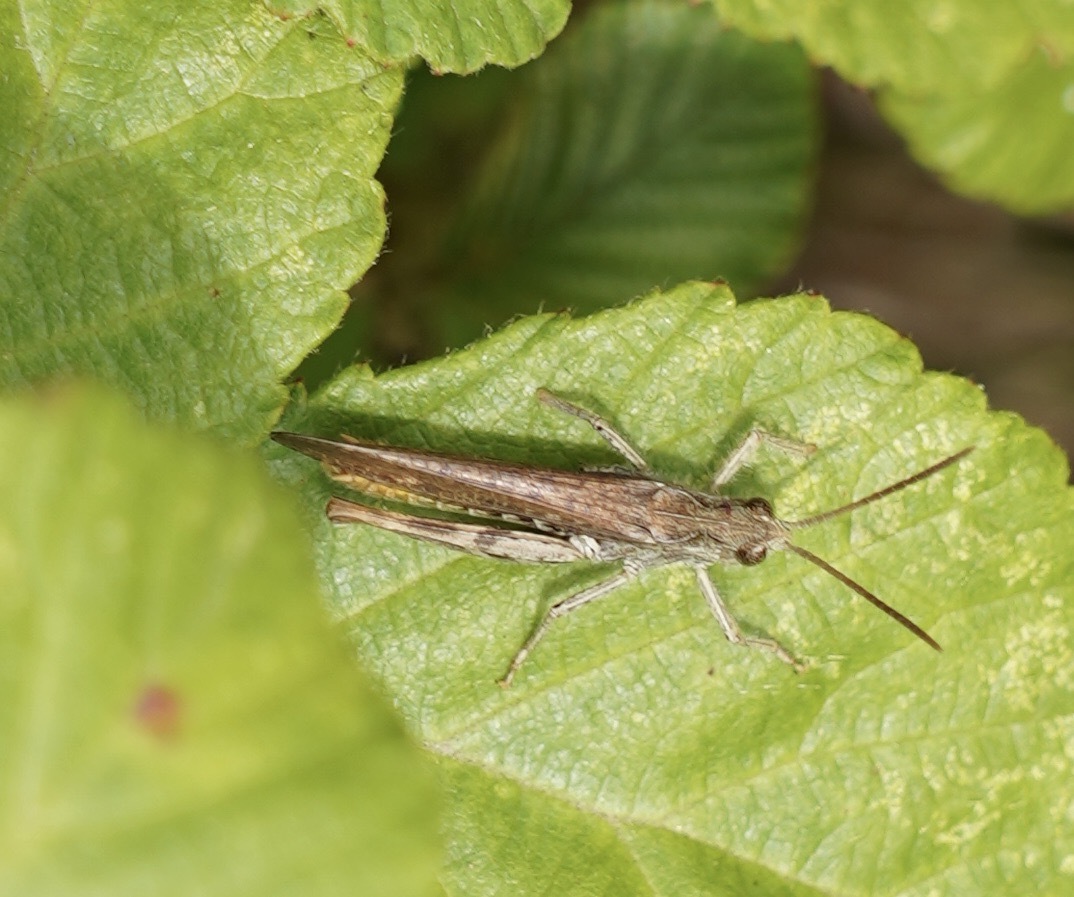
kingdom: Animalia
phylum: Arthropoda
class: Insecta
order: Orthoptera
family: Acrididae
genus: Chorthippus
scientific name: Chorthippus brunneus
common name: Field grasshopper
